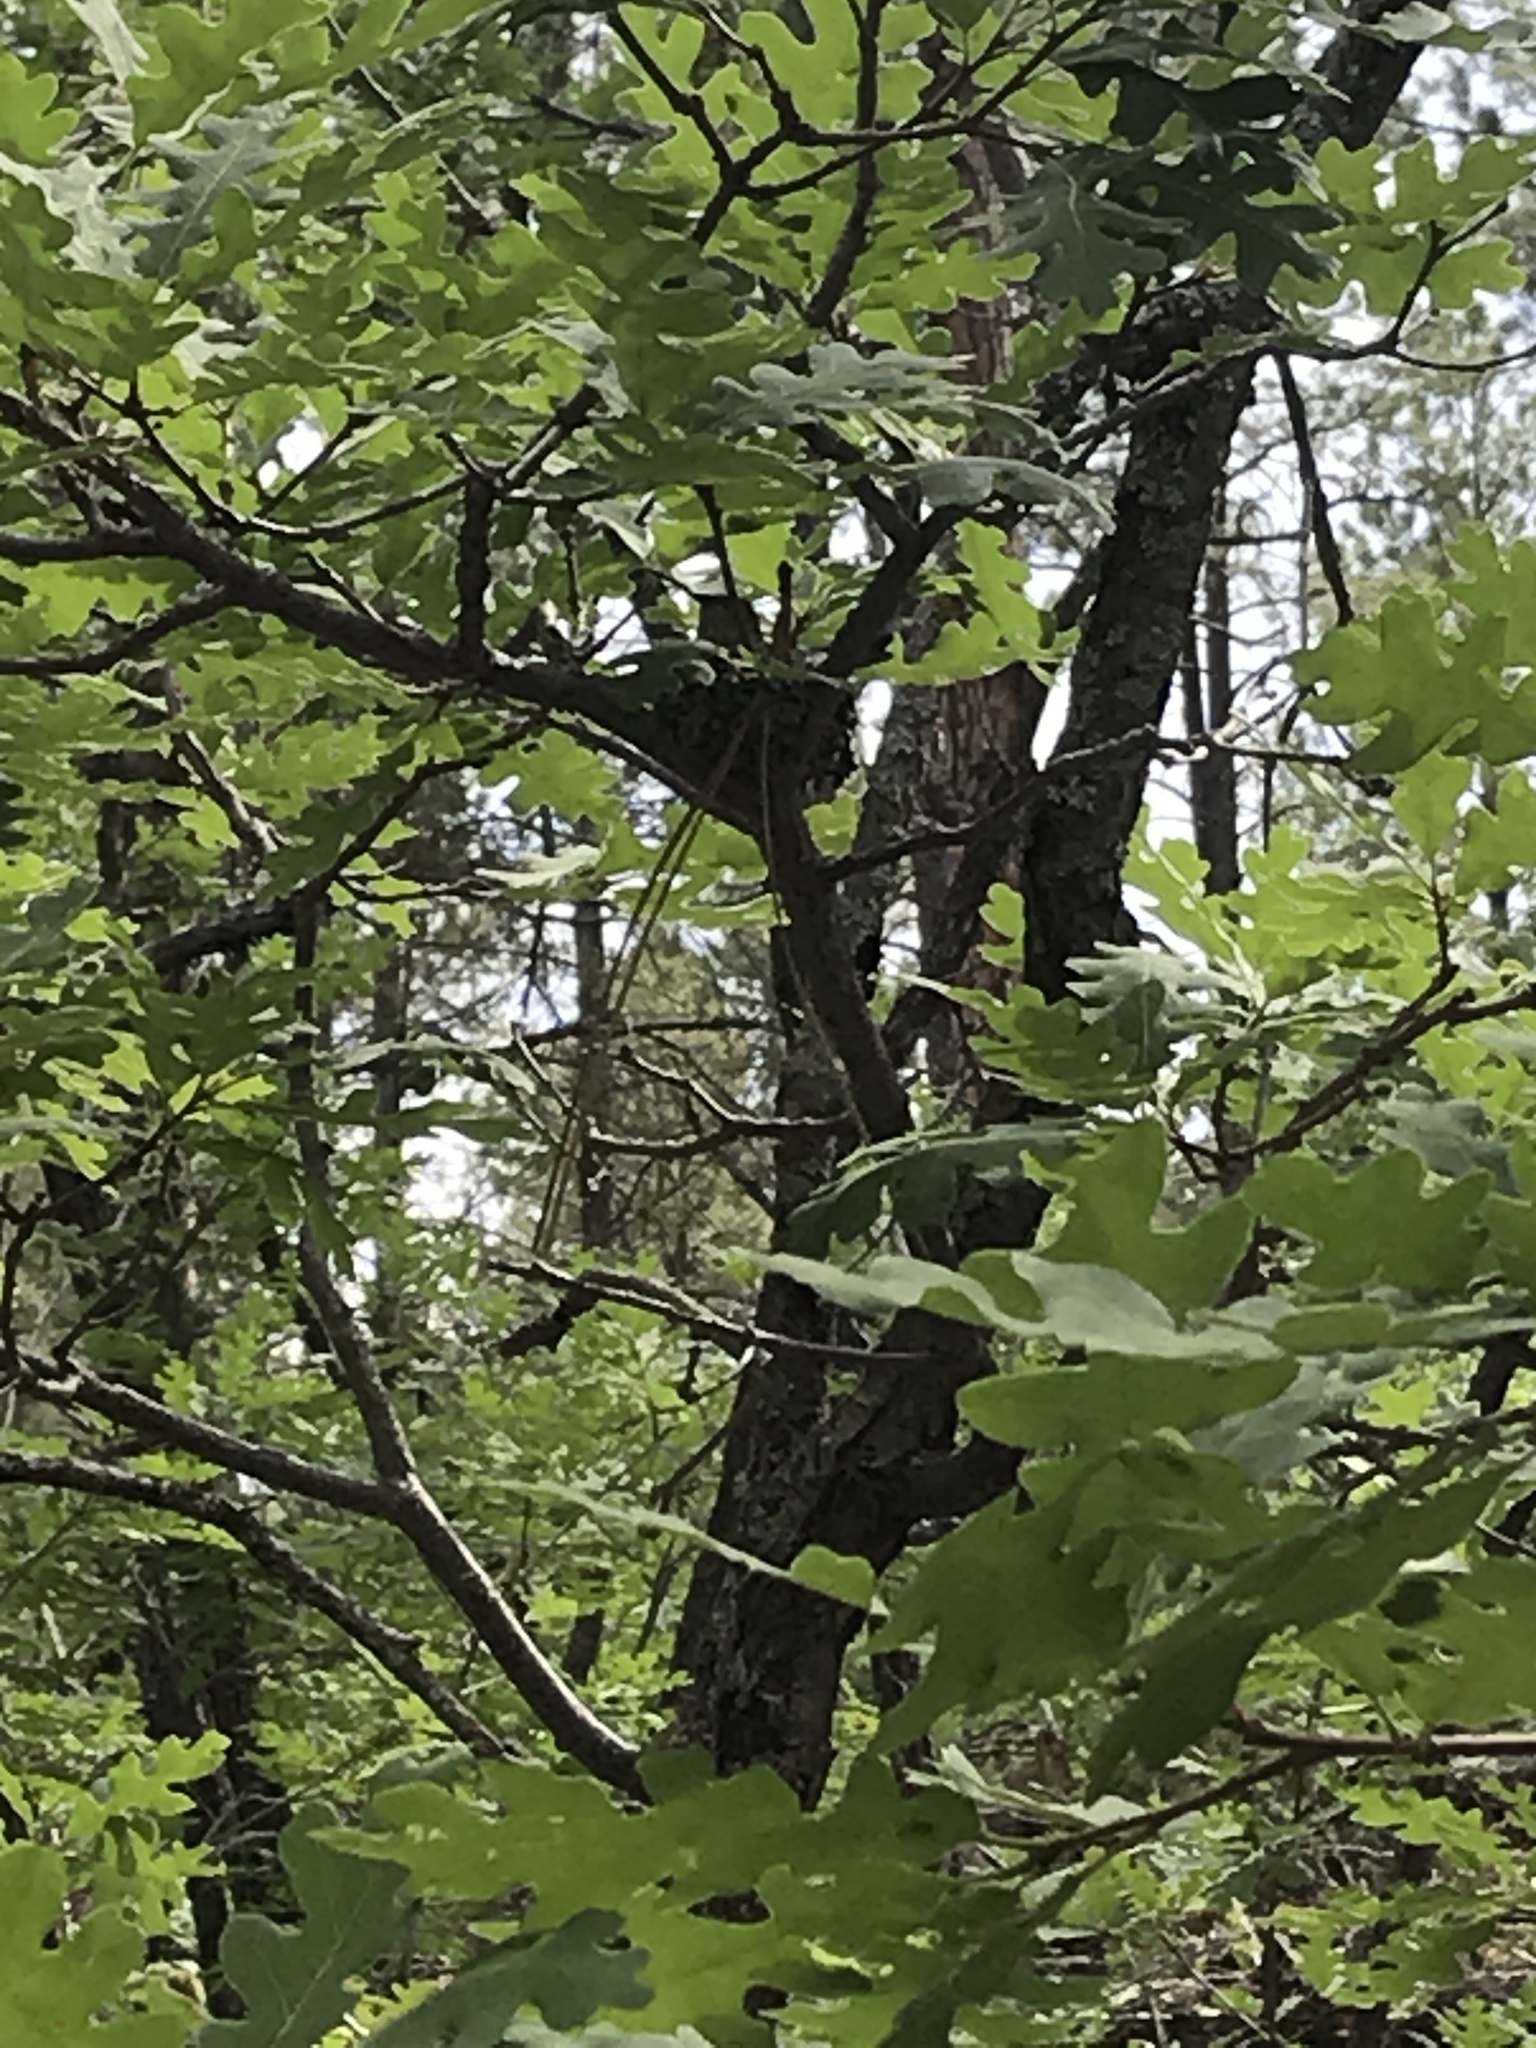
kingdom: Animalia
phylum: Chordata
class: Aves
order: Apodiformes
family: Trochilidae
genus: Selasphorus
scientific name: Selasphorus platycercus
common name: Broad-tailed hummingbird
